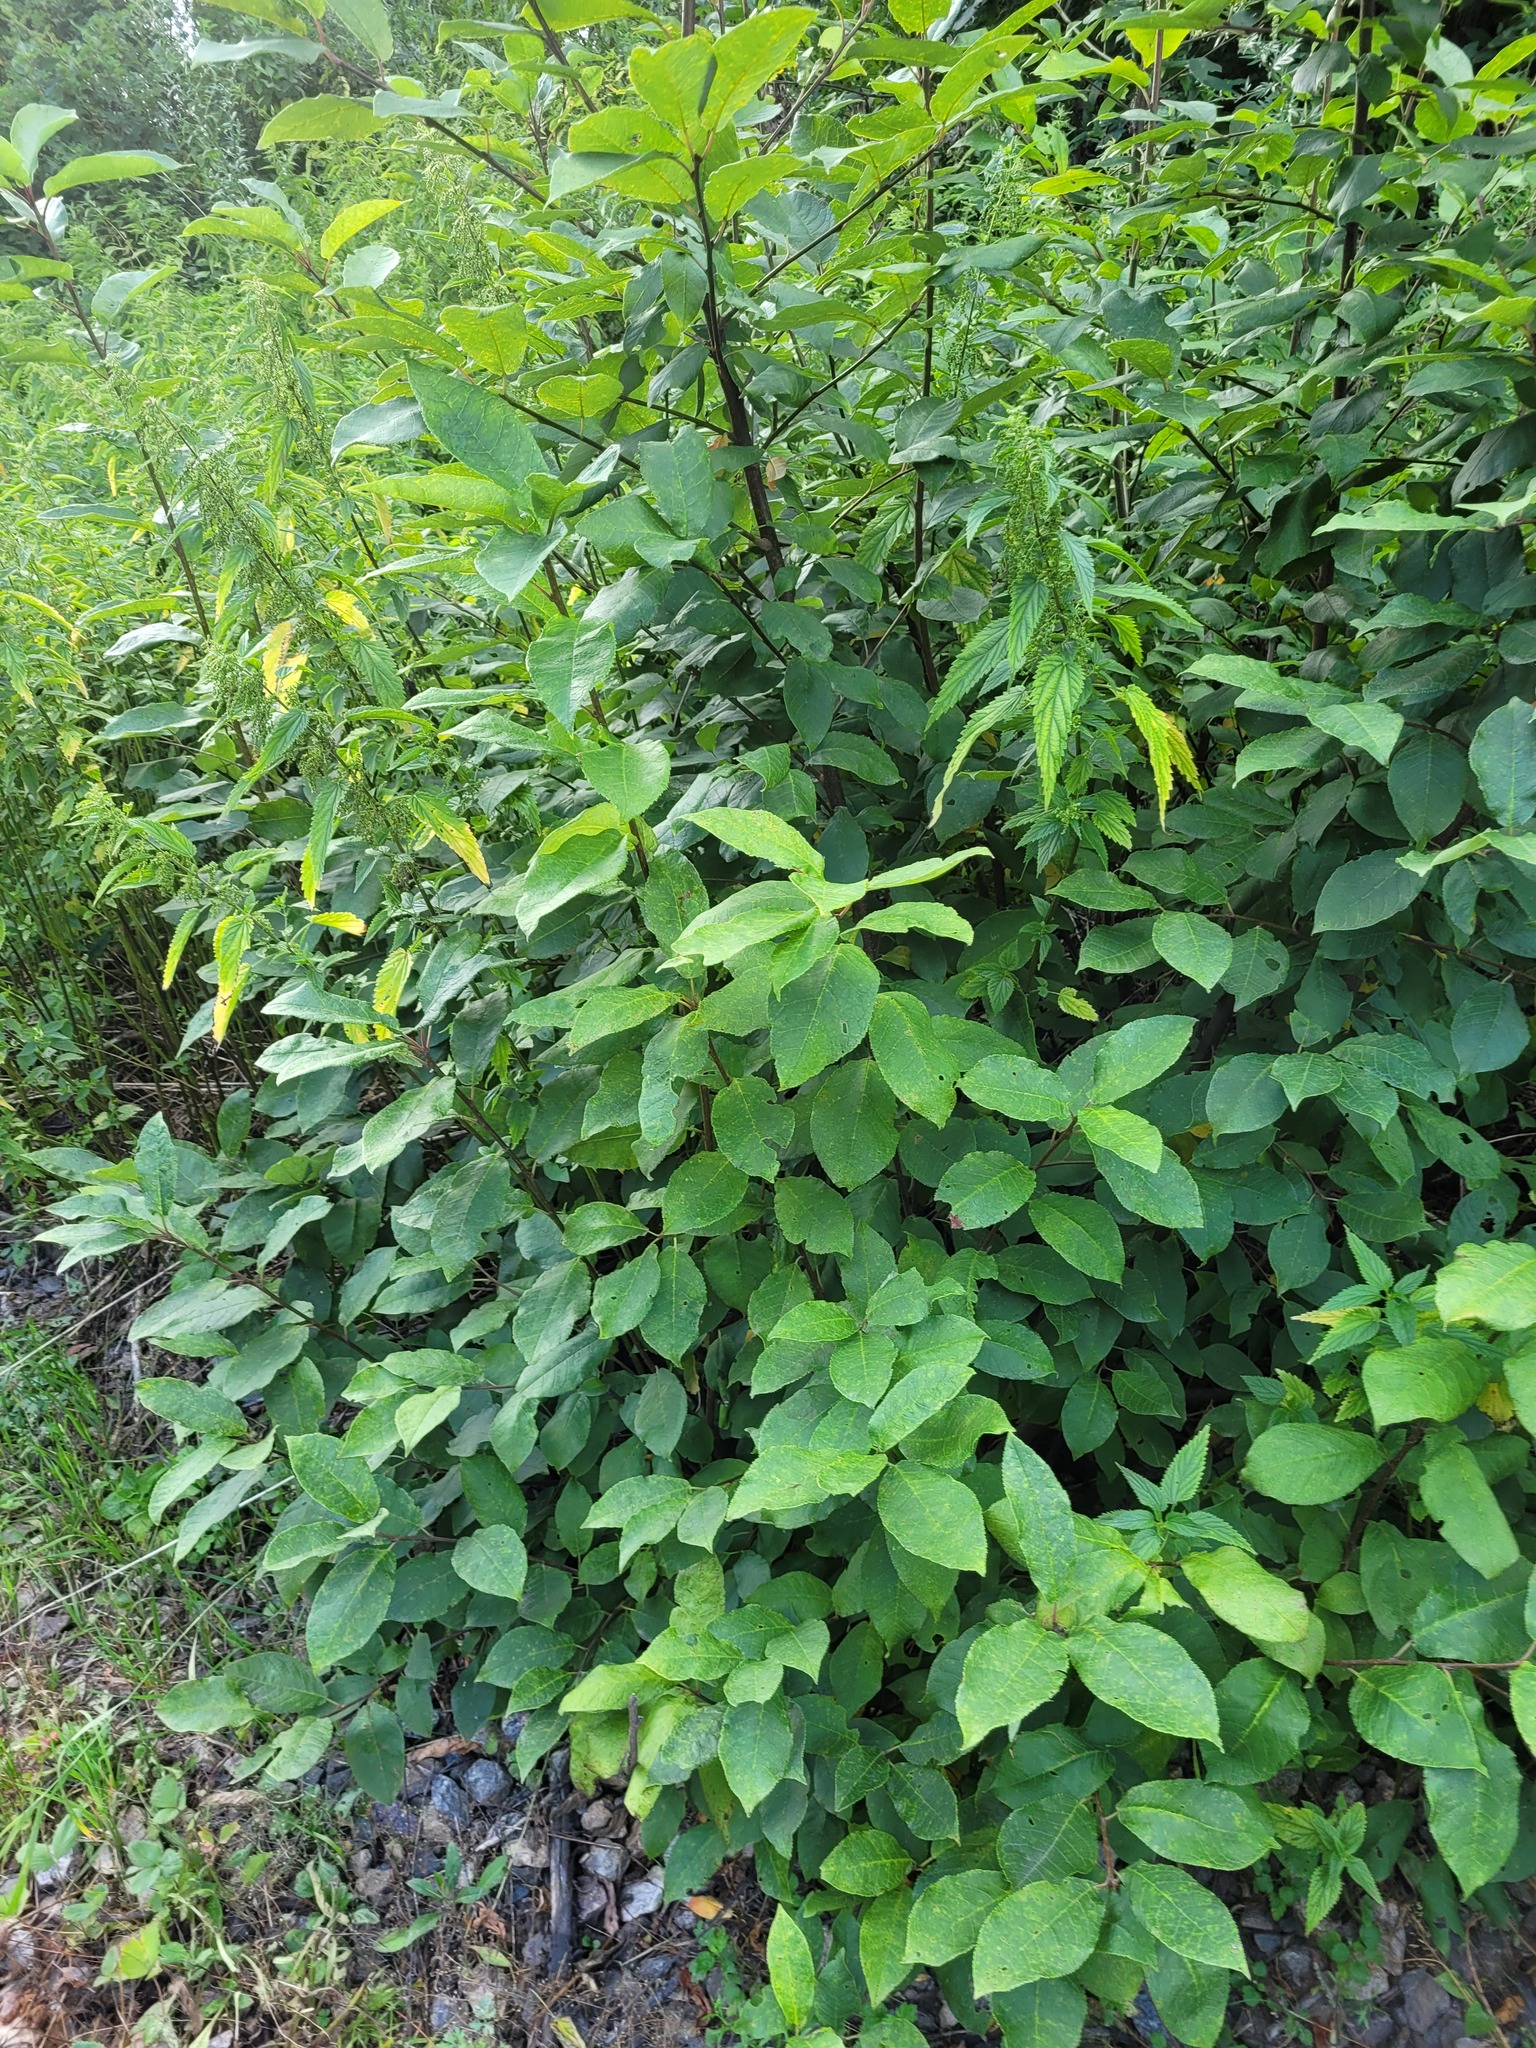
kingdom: Plantae
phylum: Tracheophyta
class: Magnoliopsida
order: Rosales
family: Rosaceae
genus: Prunus
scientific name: Prunus padus
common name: Bird cherry
